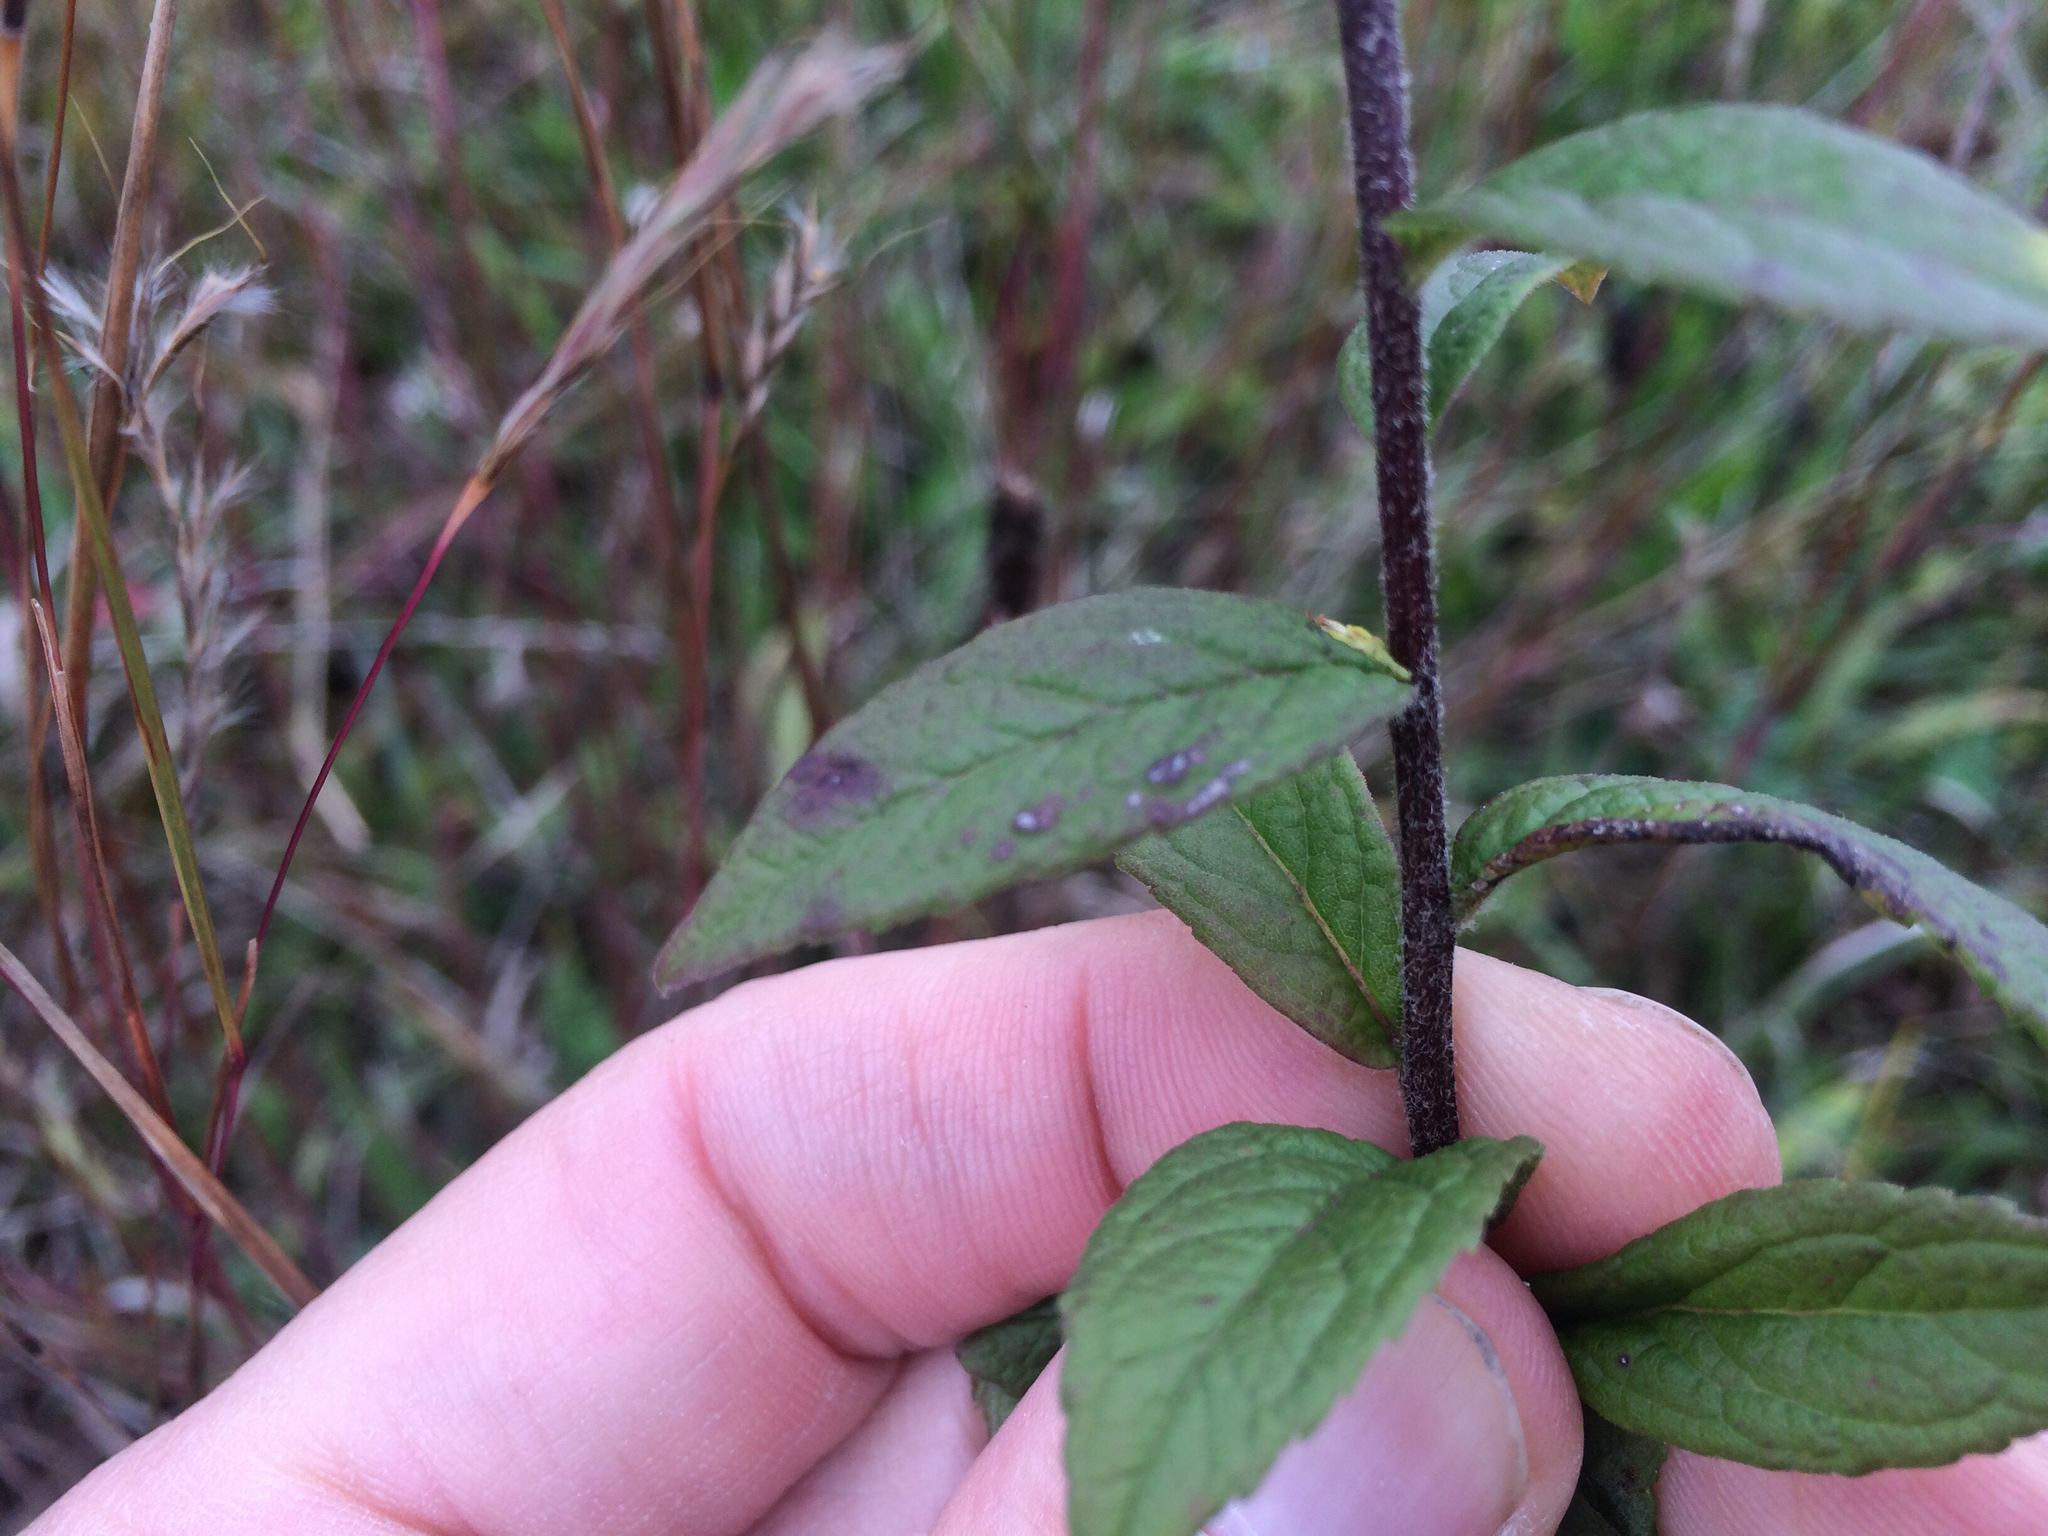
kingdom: Plantae
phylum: Tracheophyta
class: Magnoliopsida
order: Asterales
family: Asteraceae
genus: Solidago
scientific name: Solidago hispida
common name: Hairy goldenrod
